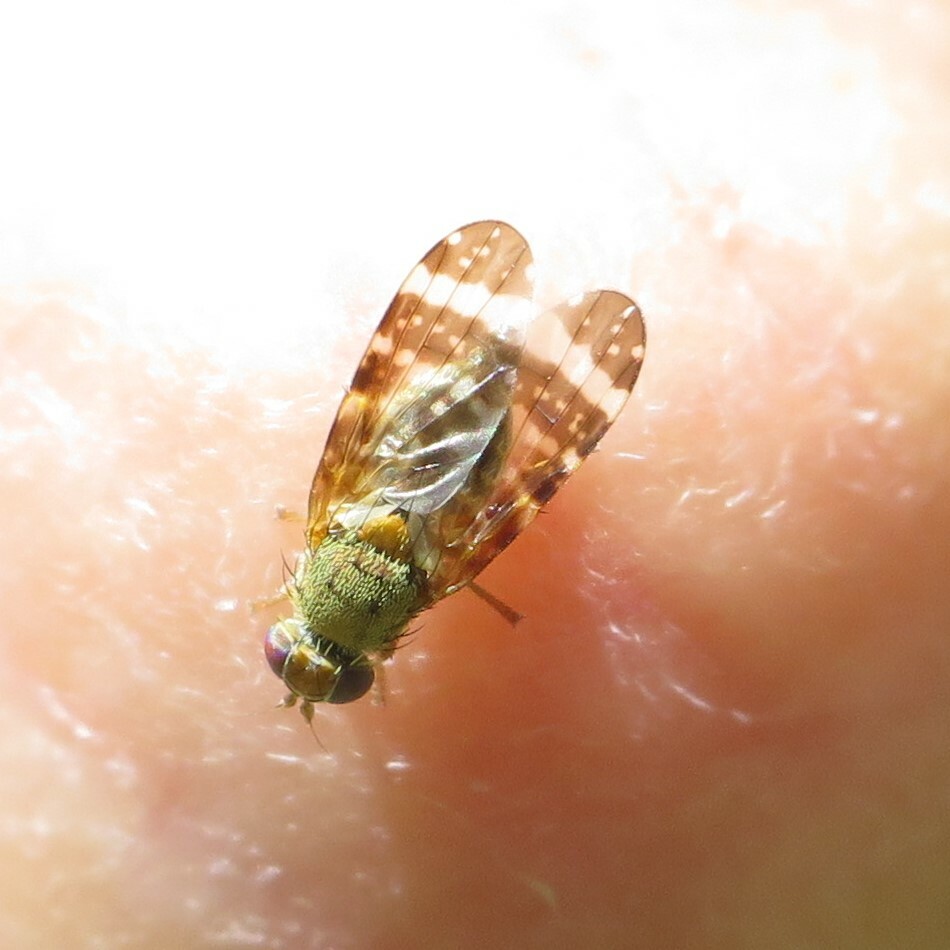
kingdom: Animalia
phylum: Arthropoda
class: Insecta
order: Diptera
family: Tephritidae
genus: Sphenella
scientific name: Sphenella
